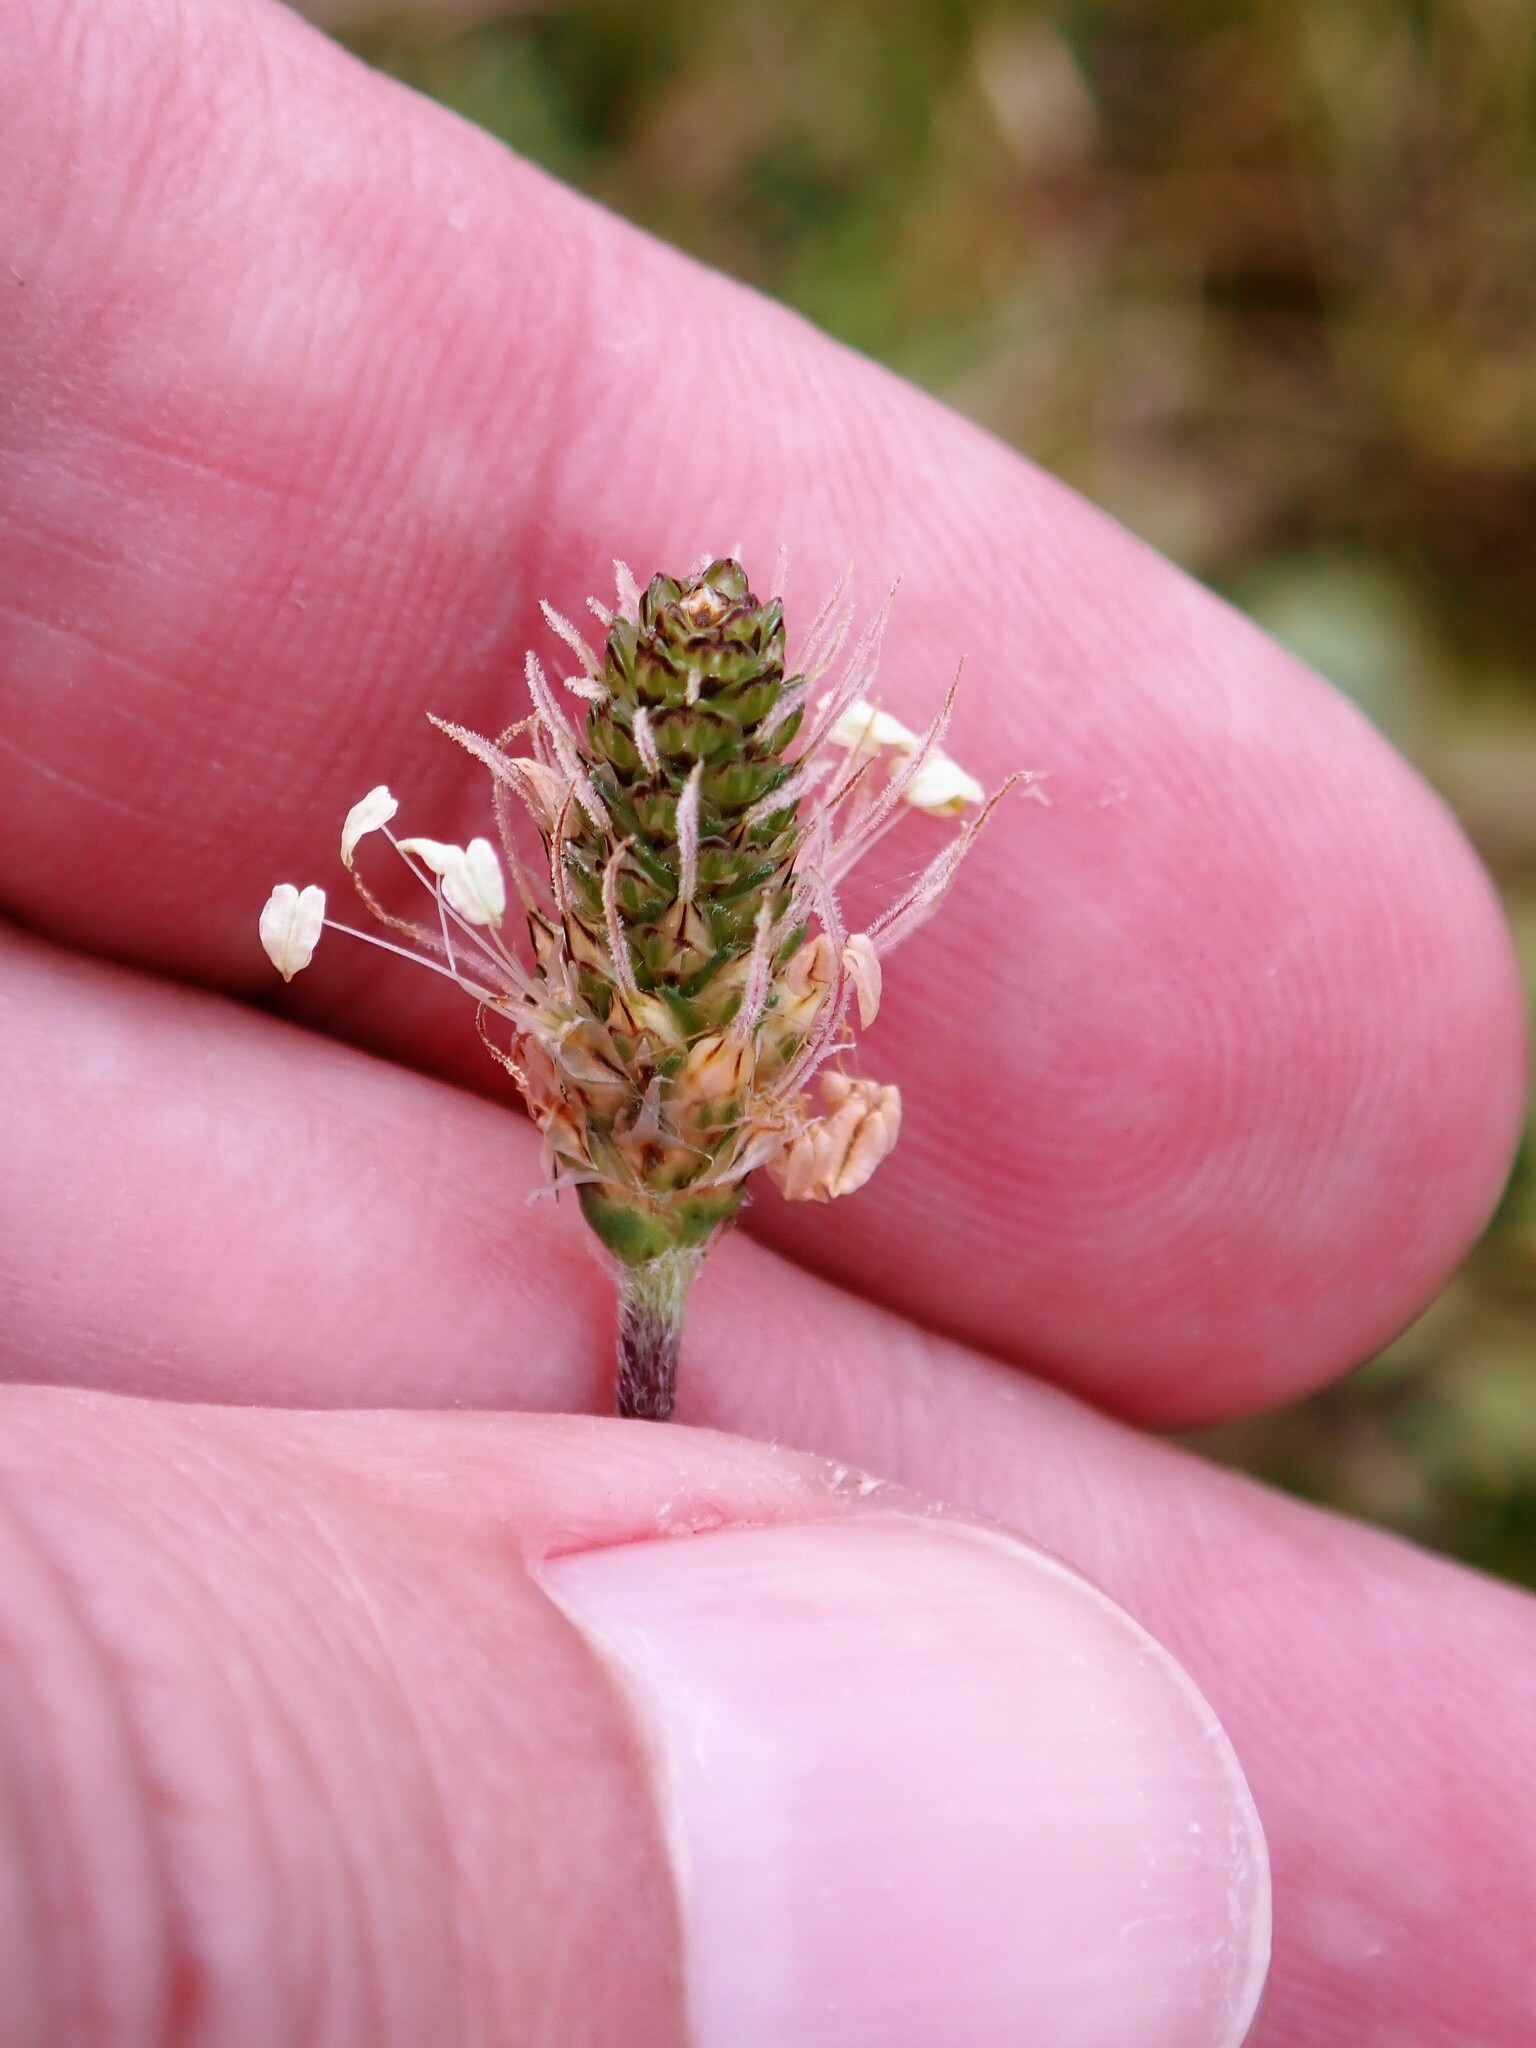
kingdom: Plantae
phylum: Tracheophyta
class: Magnoliopsida
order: Lamiales
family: Plantaginaceae
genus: Plantago
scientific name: Plantago lanceolata
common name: Ribwort plantain
